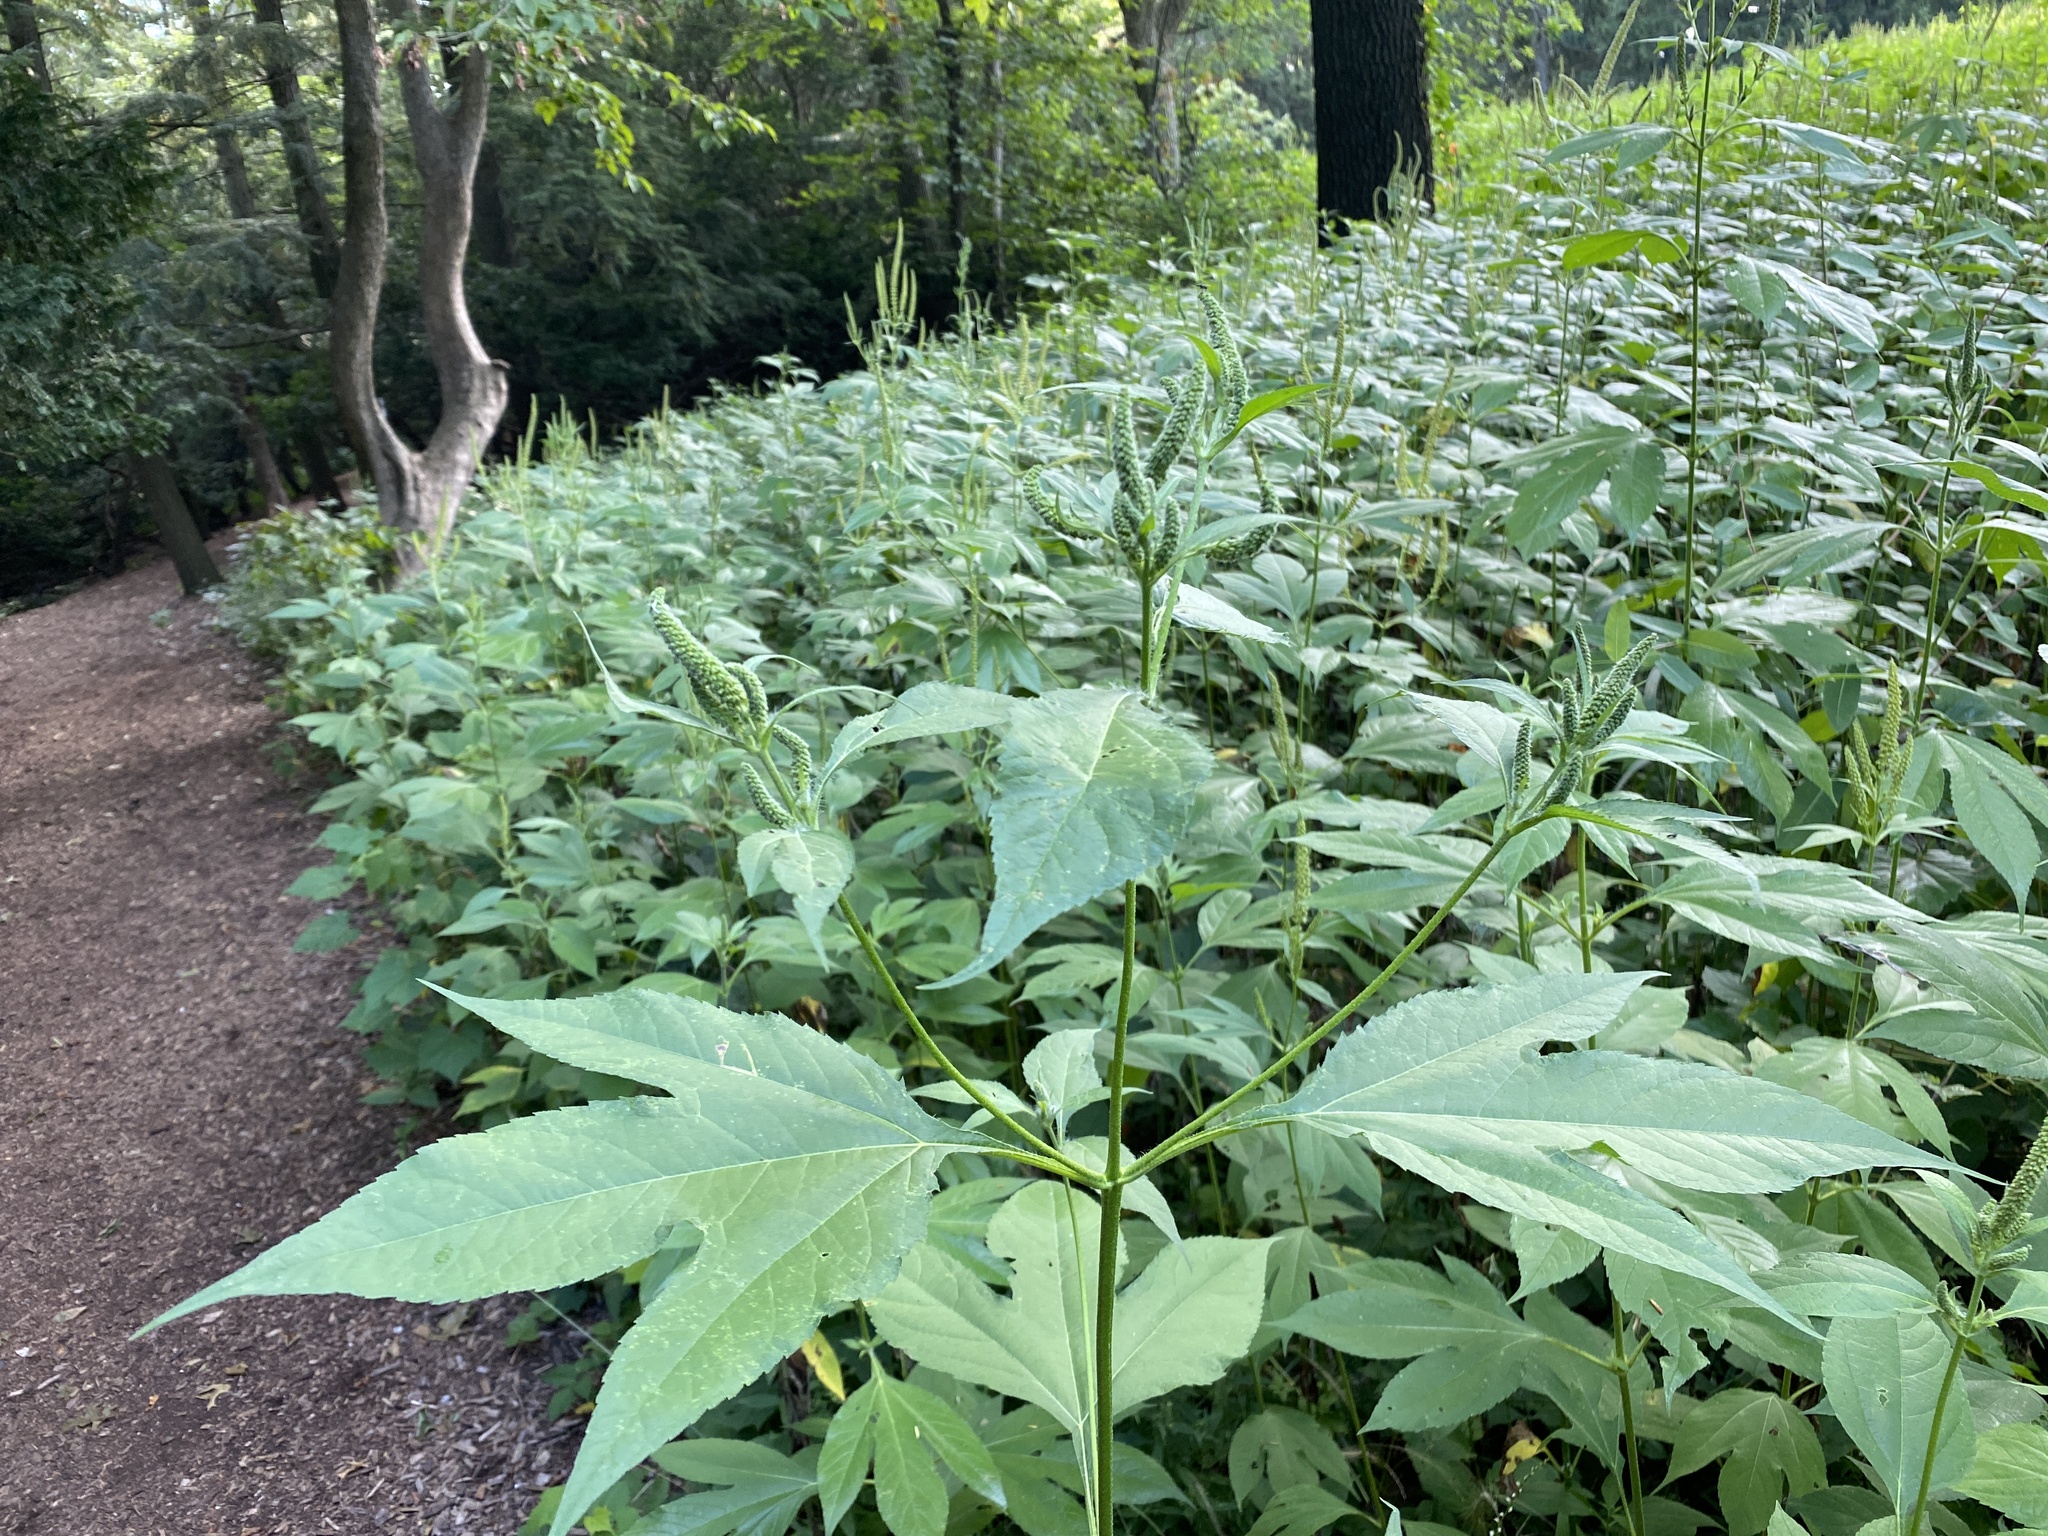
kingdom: Plantae
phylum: Tracheophyta
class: Magnoliopsida
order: Asterales
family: Asteraceae
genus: Ambrosia
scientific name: Ambrosia trifida
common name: Giant ragweed
